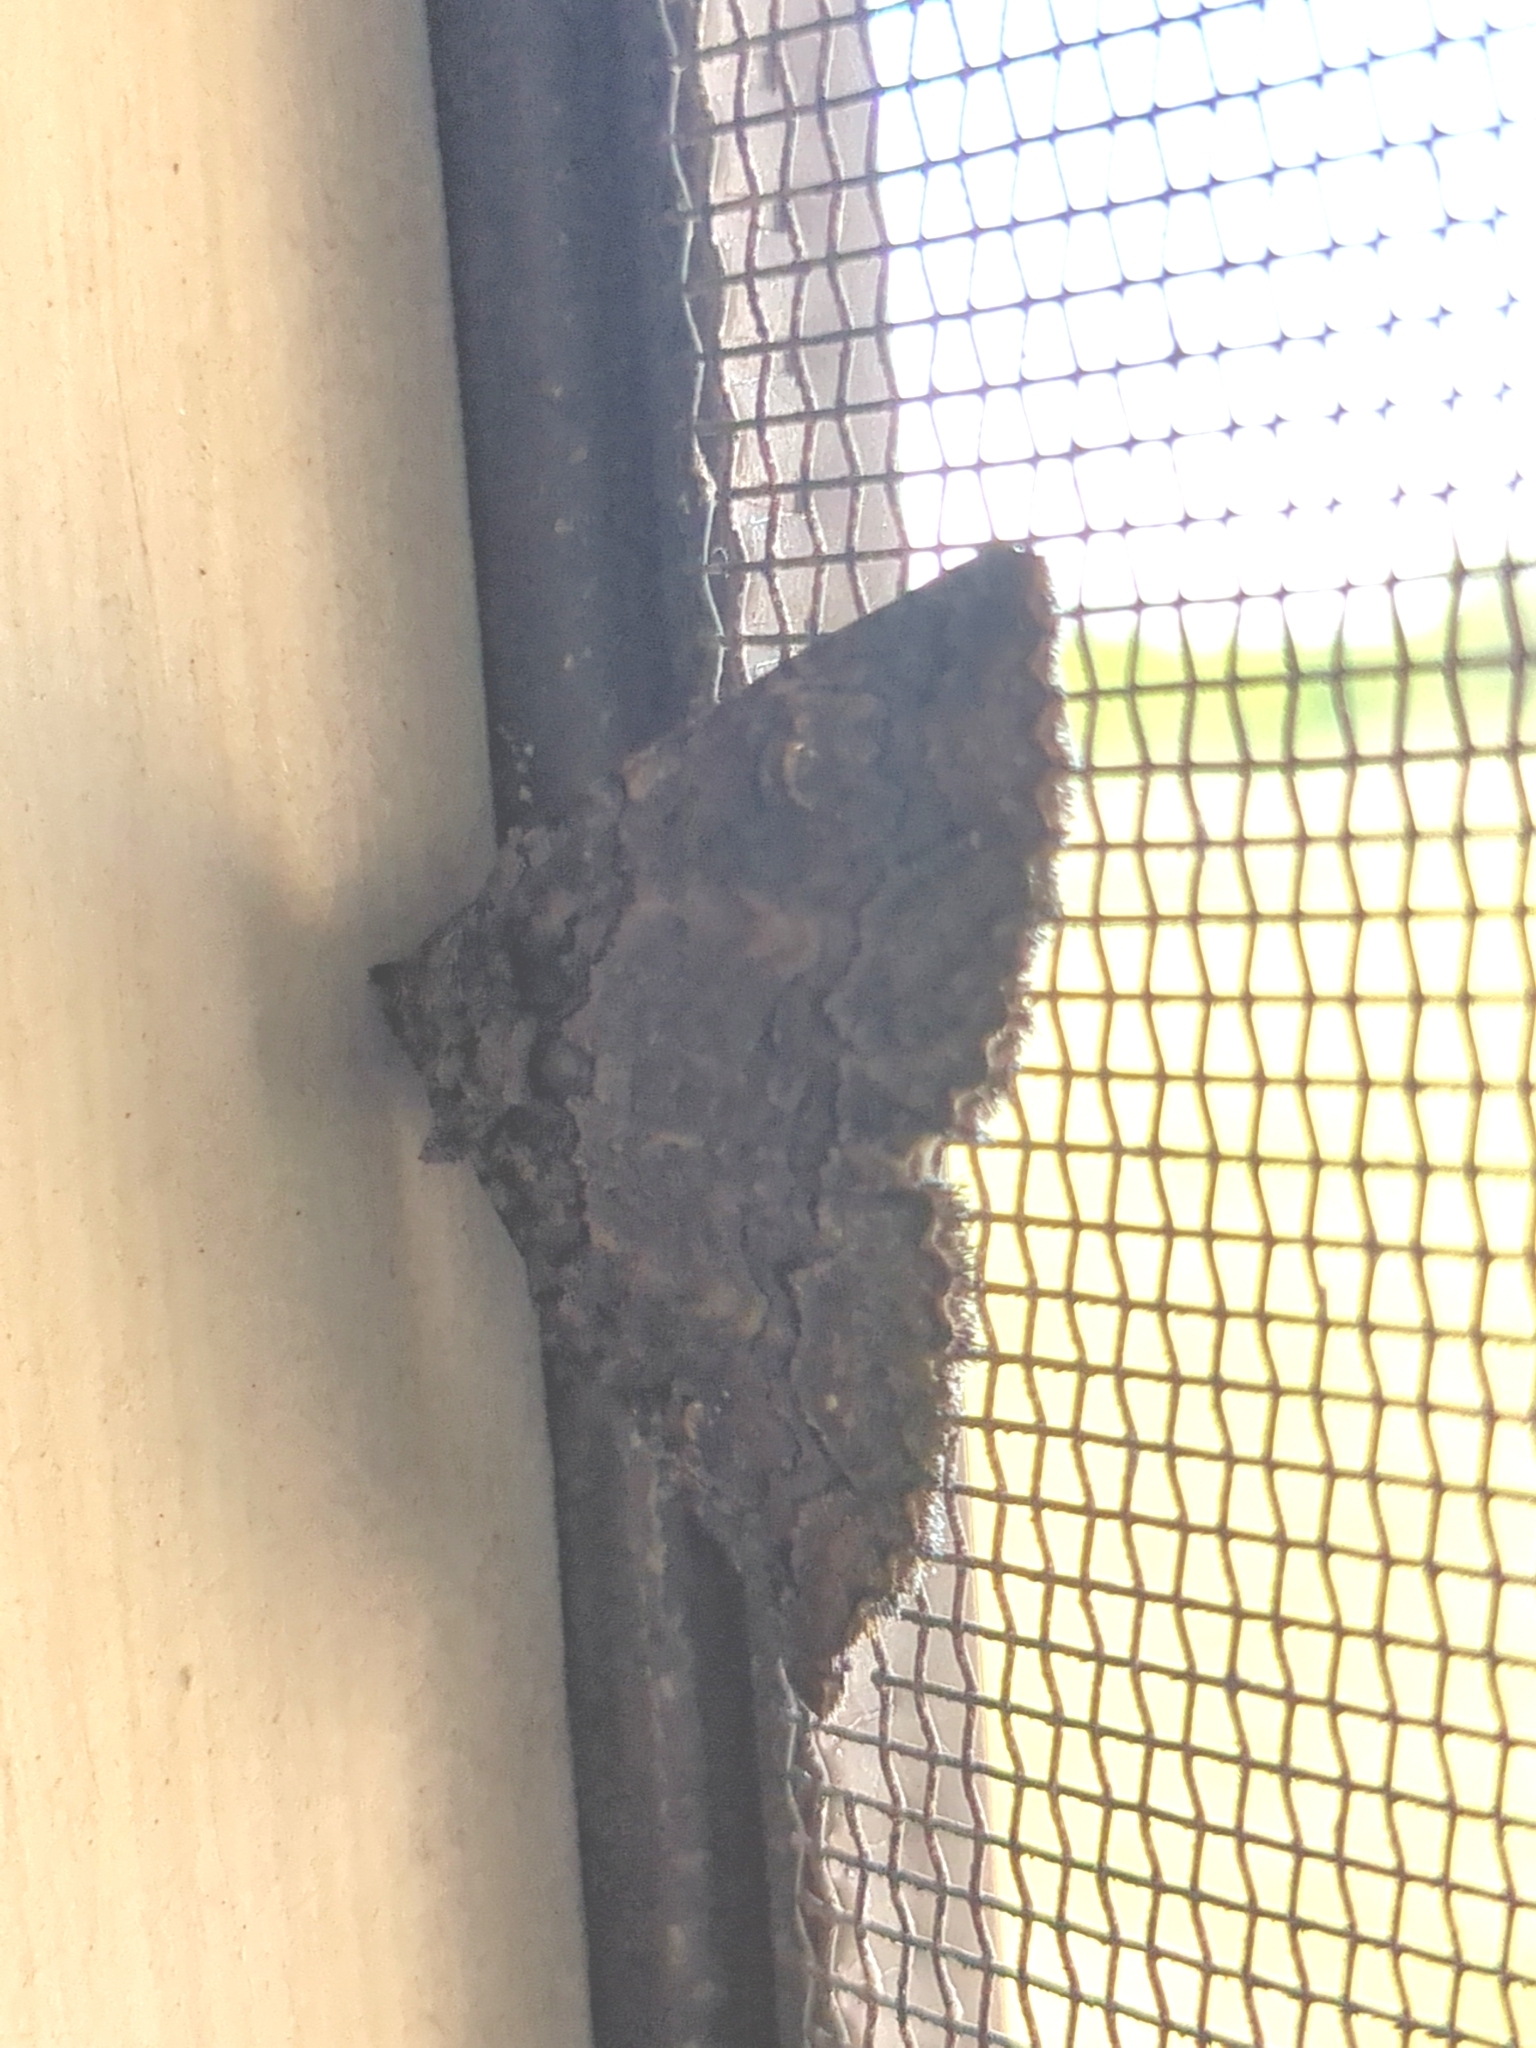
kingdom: Animalia
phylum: Arthropoda
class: Insecta
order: Lepidoptera
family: Erebidae
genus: Zale
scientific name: Zale edusina
